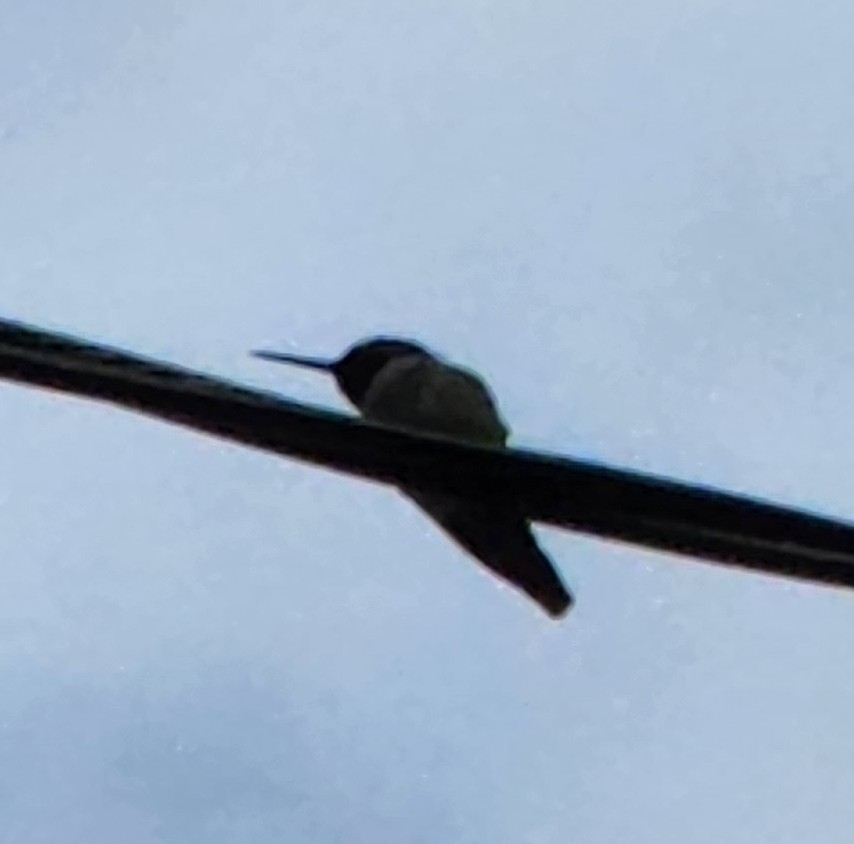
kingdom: Animalia
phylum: Chordata
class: Aves
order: Apodiformes
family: Trochilidae
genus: Calypte
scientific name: Calypte anna
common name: Anna's hummingbird
